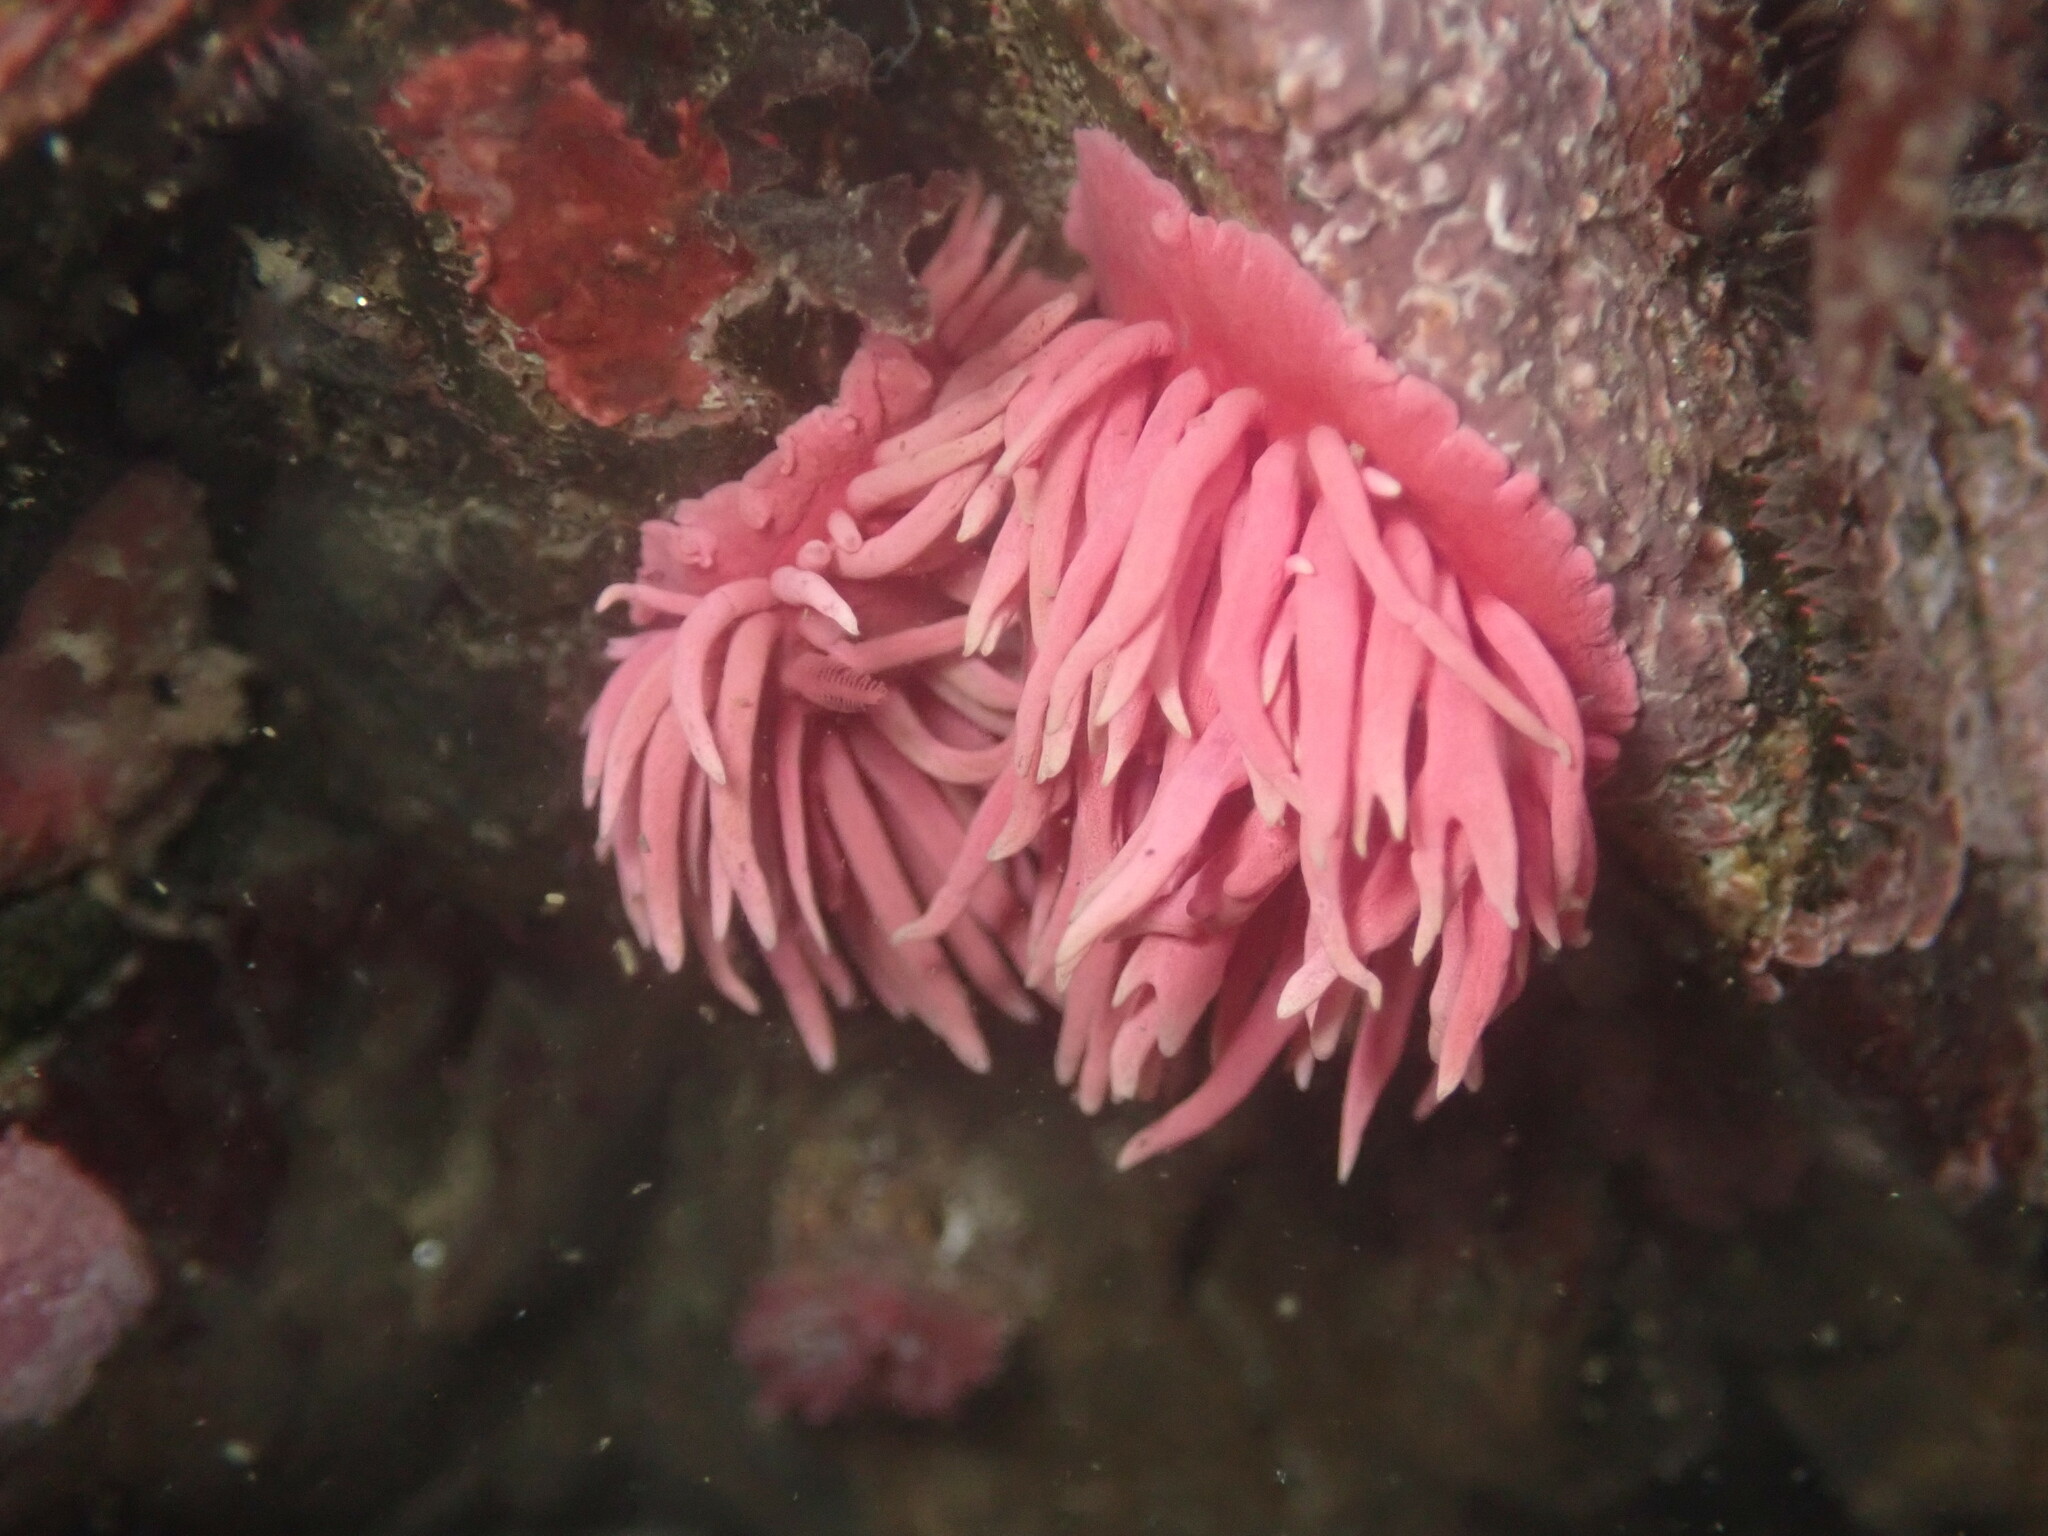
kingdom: Animalia
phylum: Mollusca
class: Gastropoda
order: Nudibranchia
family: Goniodorididae
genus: Okenia
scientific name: Okenia
